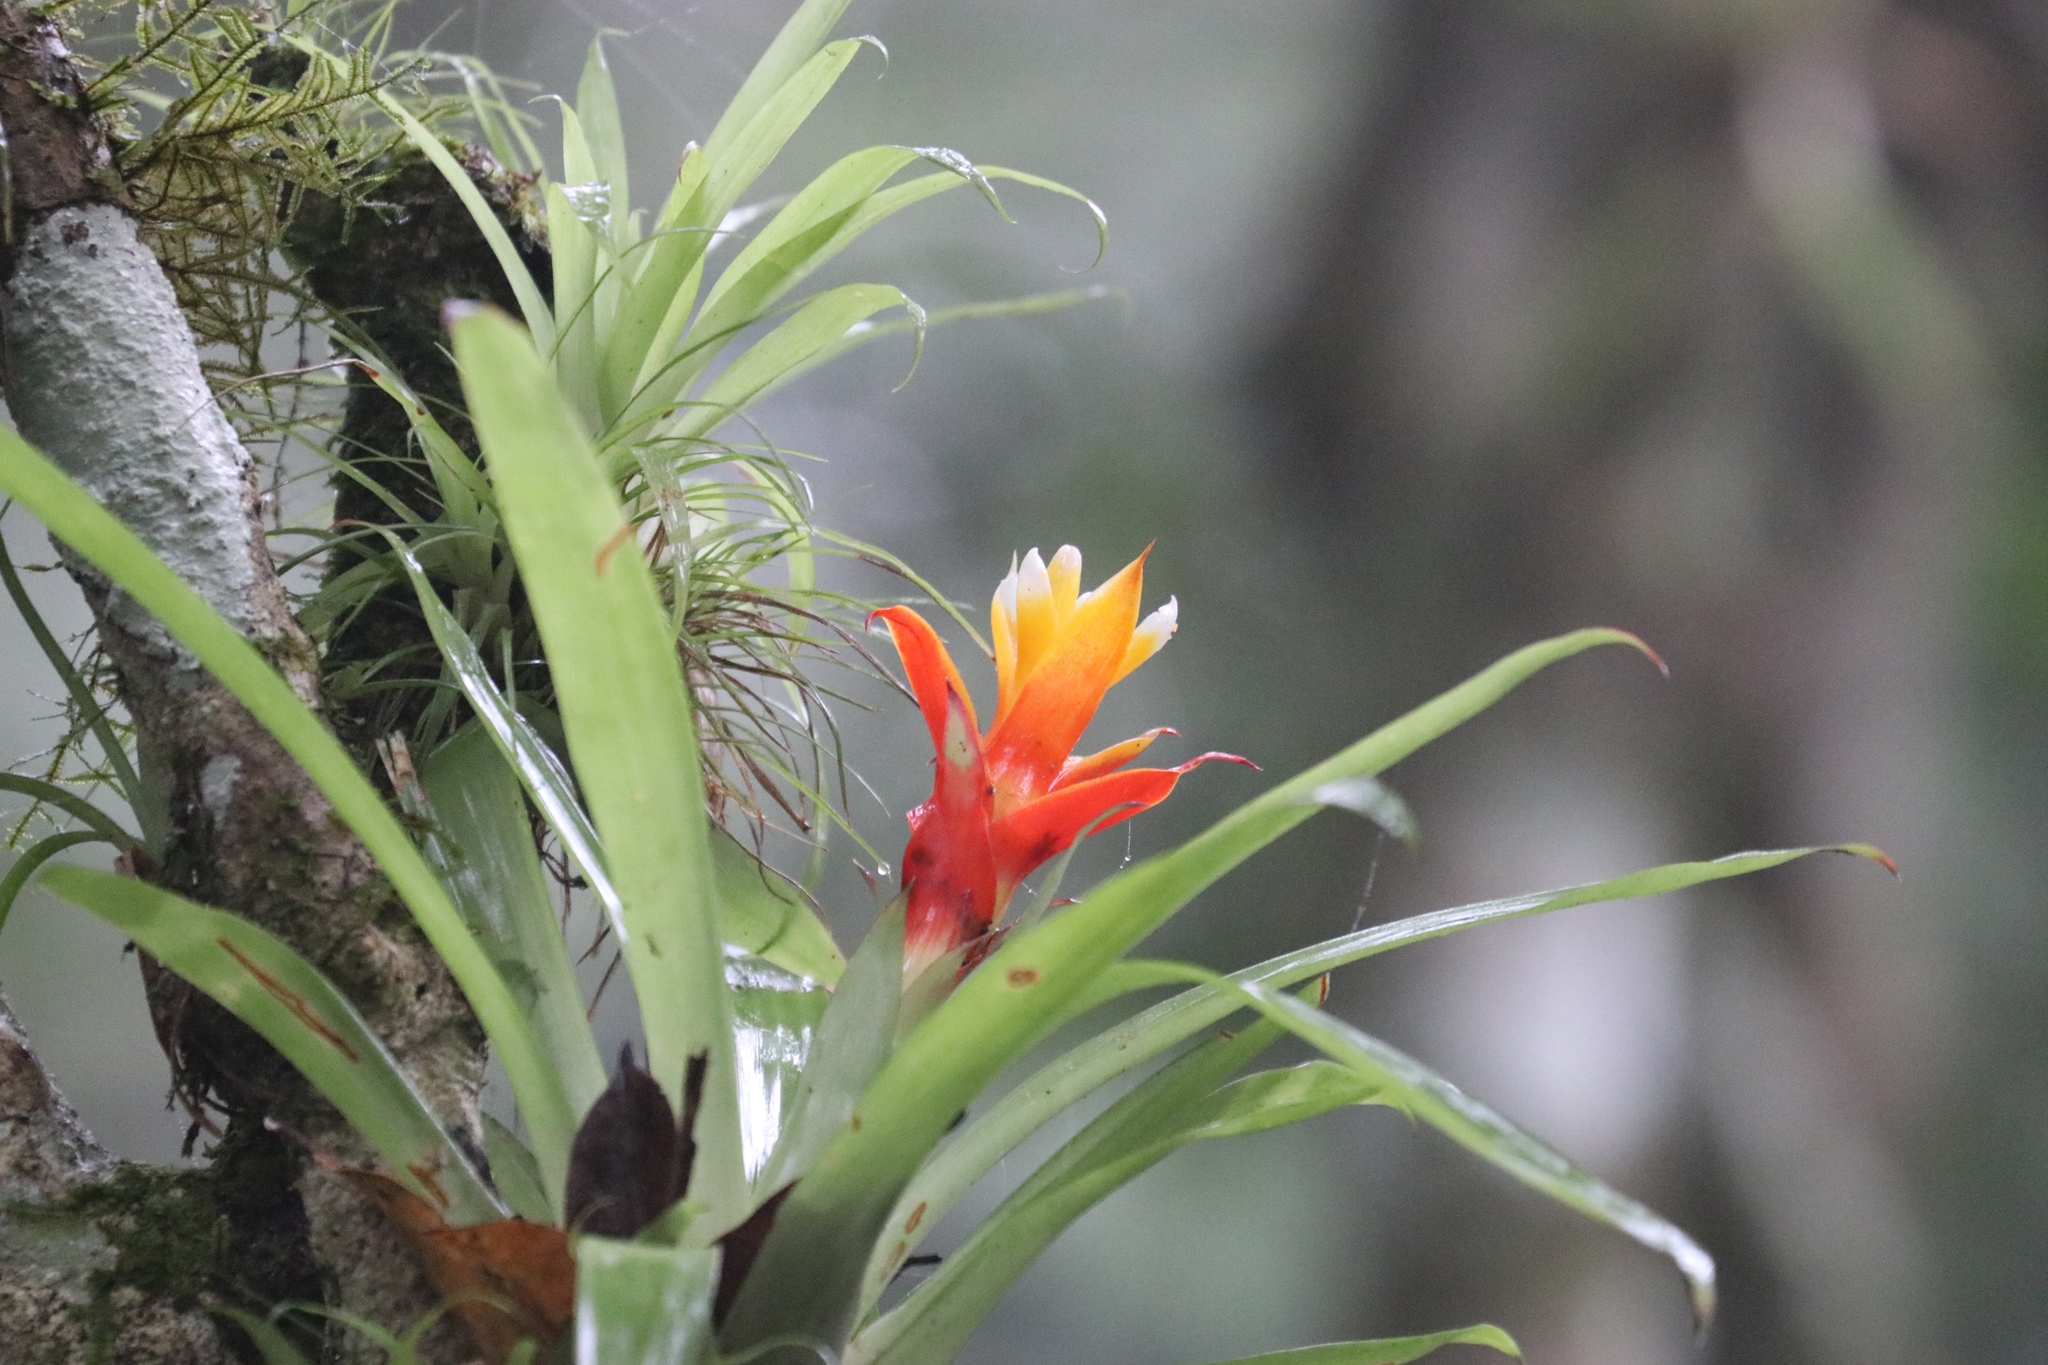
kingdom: Plantae
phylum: Tracheophyta
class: Liliopsida
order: Poales
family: Bromeliaceae
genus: Guzmania
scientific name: Guzmania lingulata
